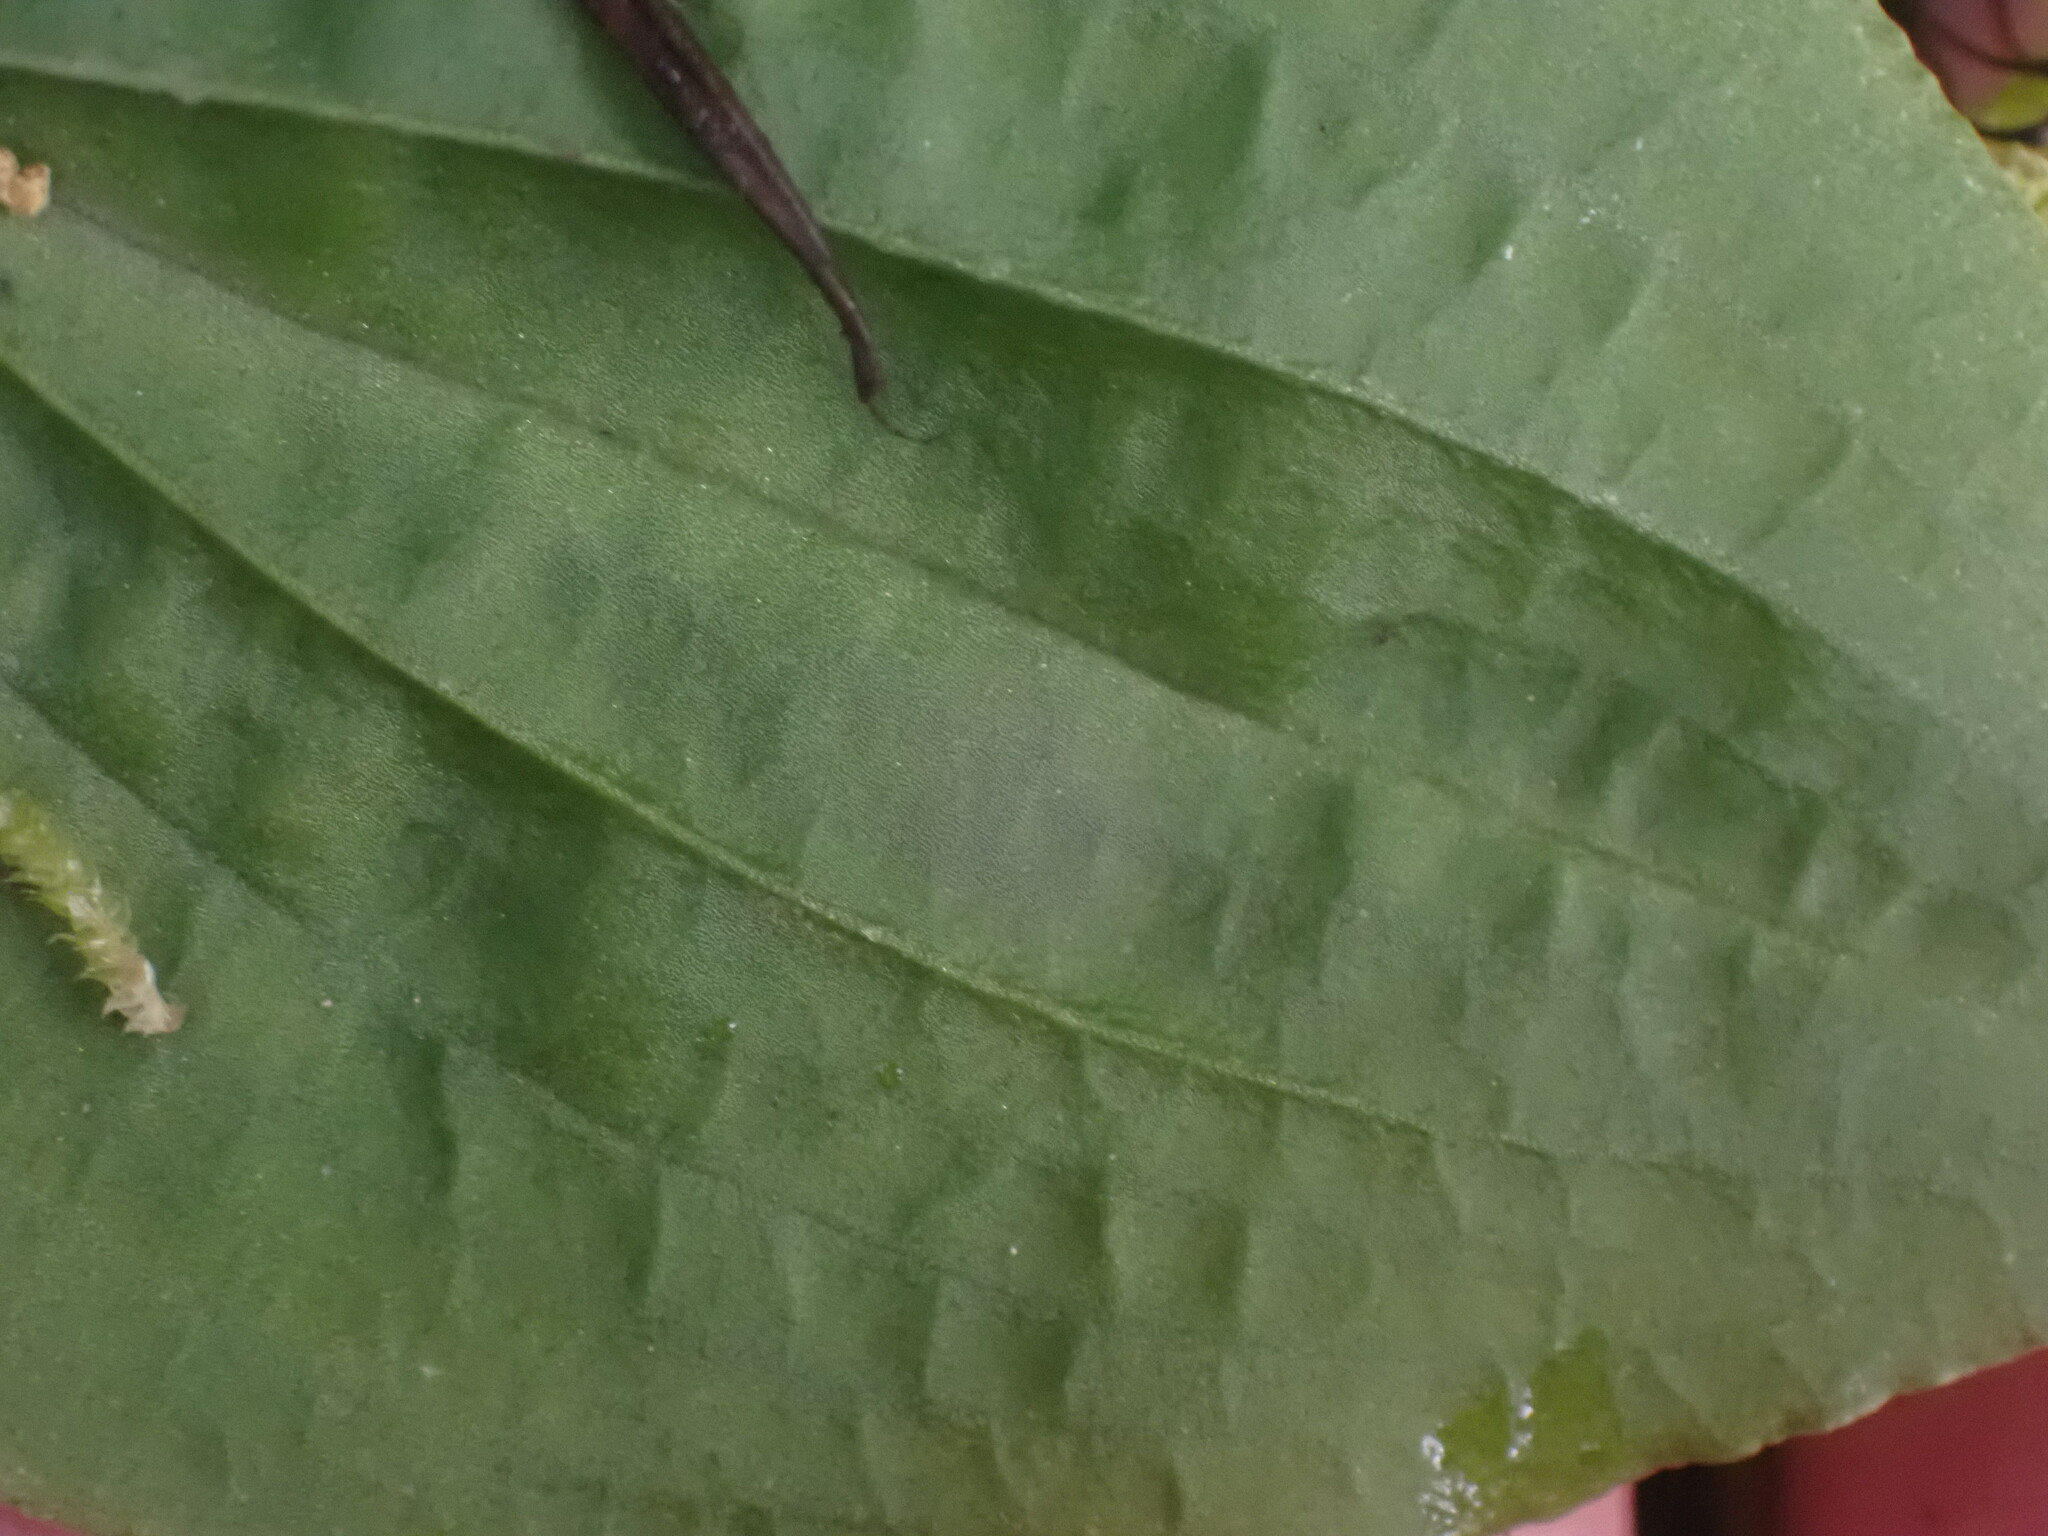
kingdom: Plantae
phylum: Tracheophyta
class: Liliopsida
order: Asparagales
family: Orchidaceae
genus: Calypso
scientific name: Calypso bulbosa
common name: Calypso
